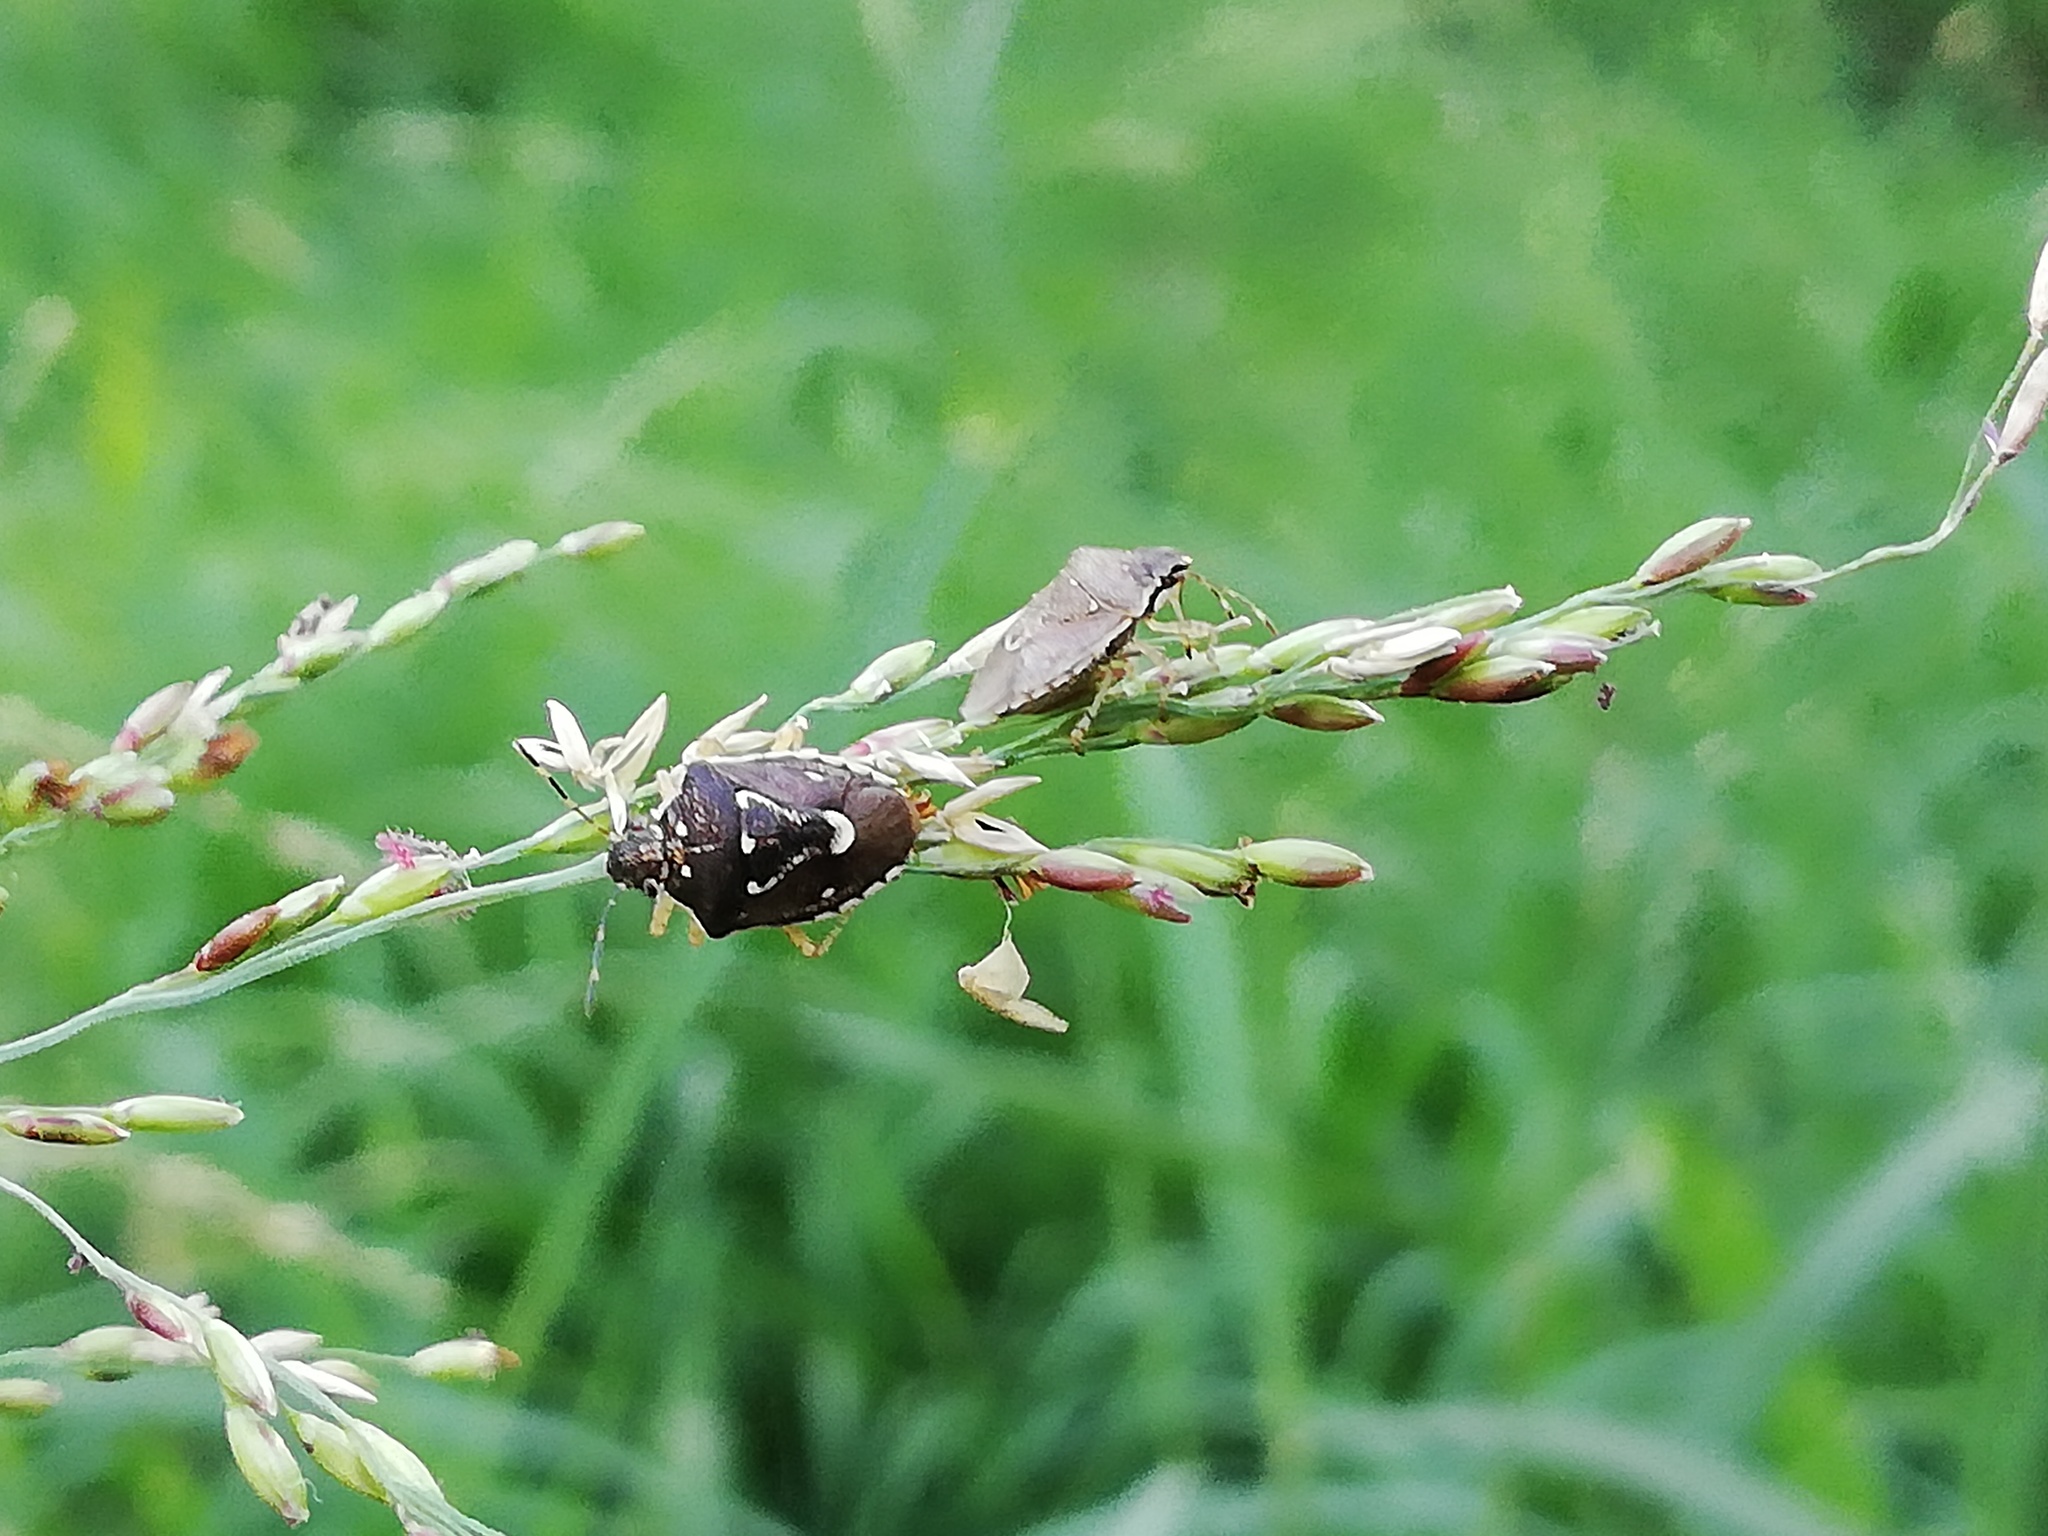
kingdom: Animalia
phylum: Arthropoda
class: Insecta
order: Hemiptera
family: Pentatomidae
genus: Mormidea
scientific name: Mormidea pama
